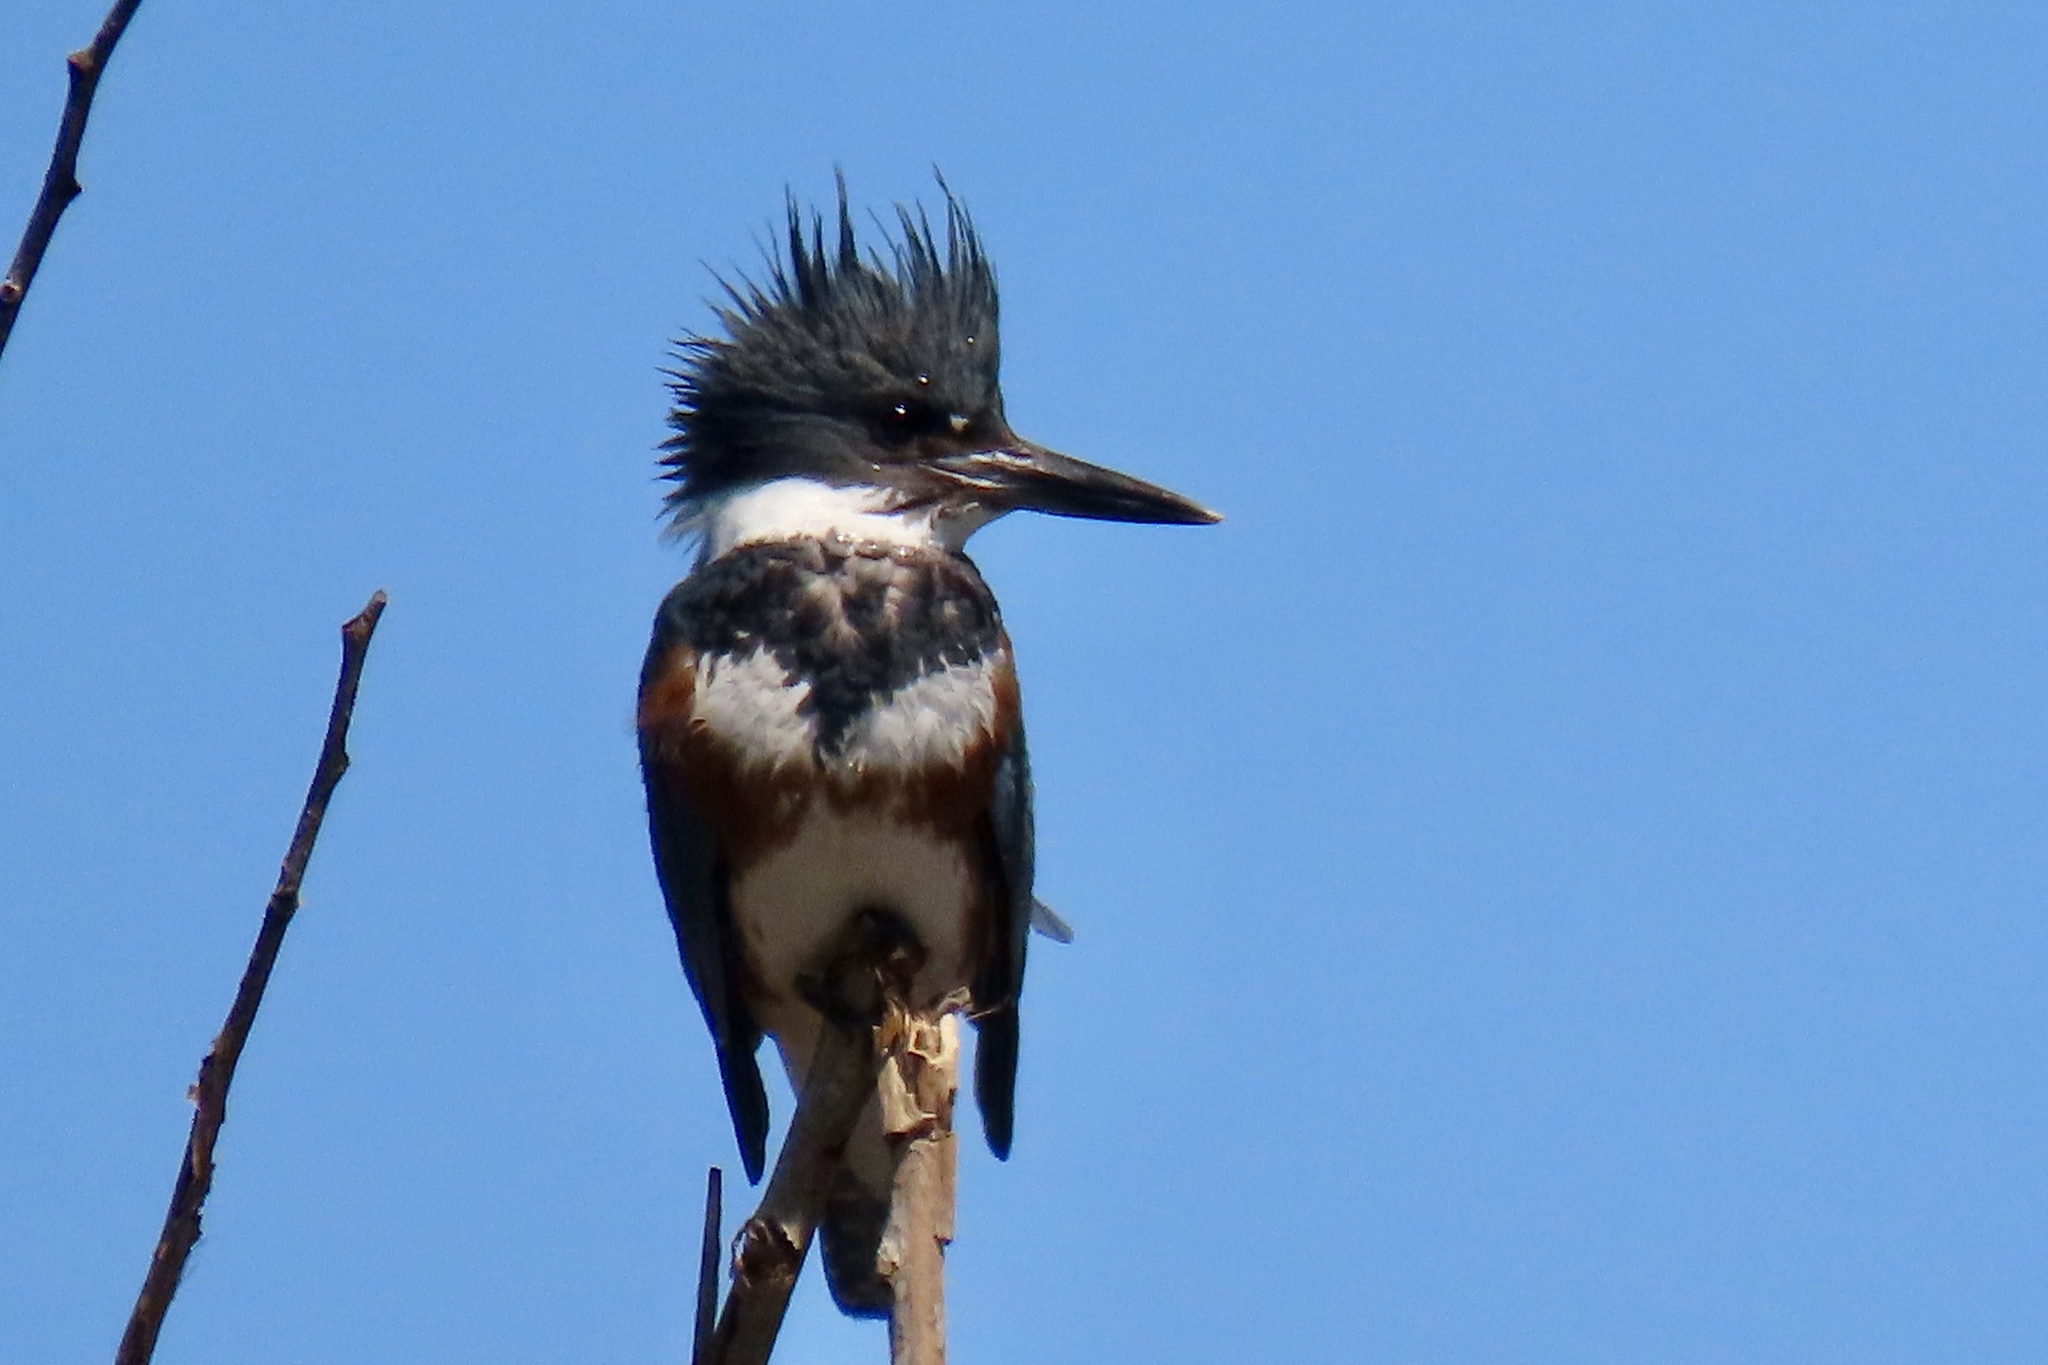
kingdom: Animalia
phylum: Chordata
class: Aves
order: Coraciiformes
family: Alcedinidae
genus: Megaceryle
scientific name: Megaceryle alcyon
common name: Belted kingfisher
